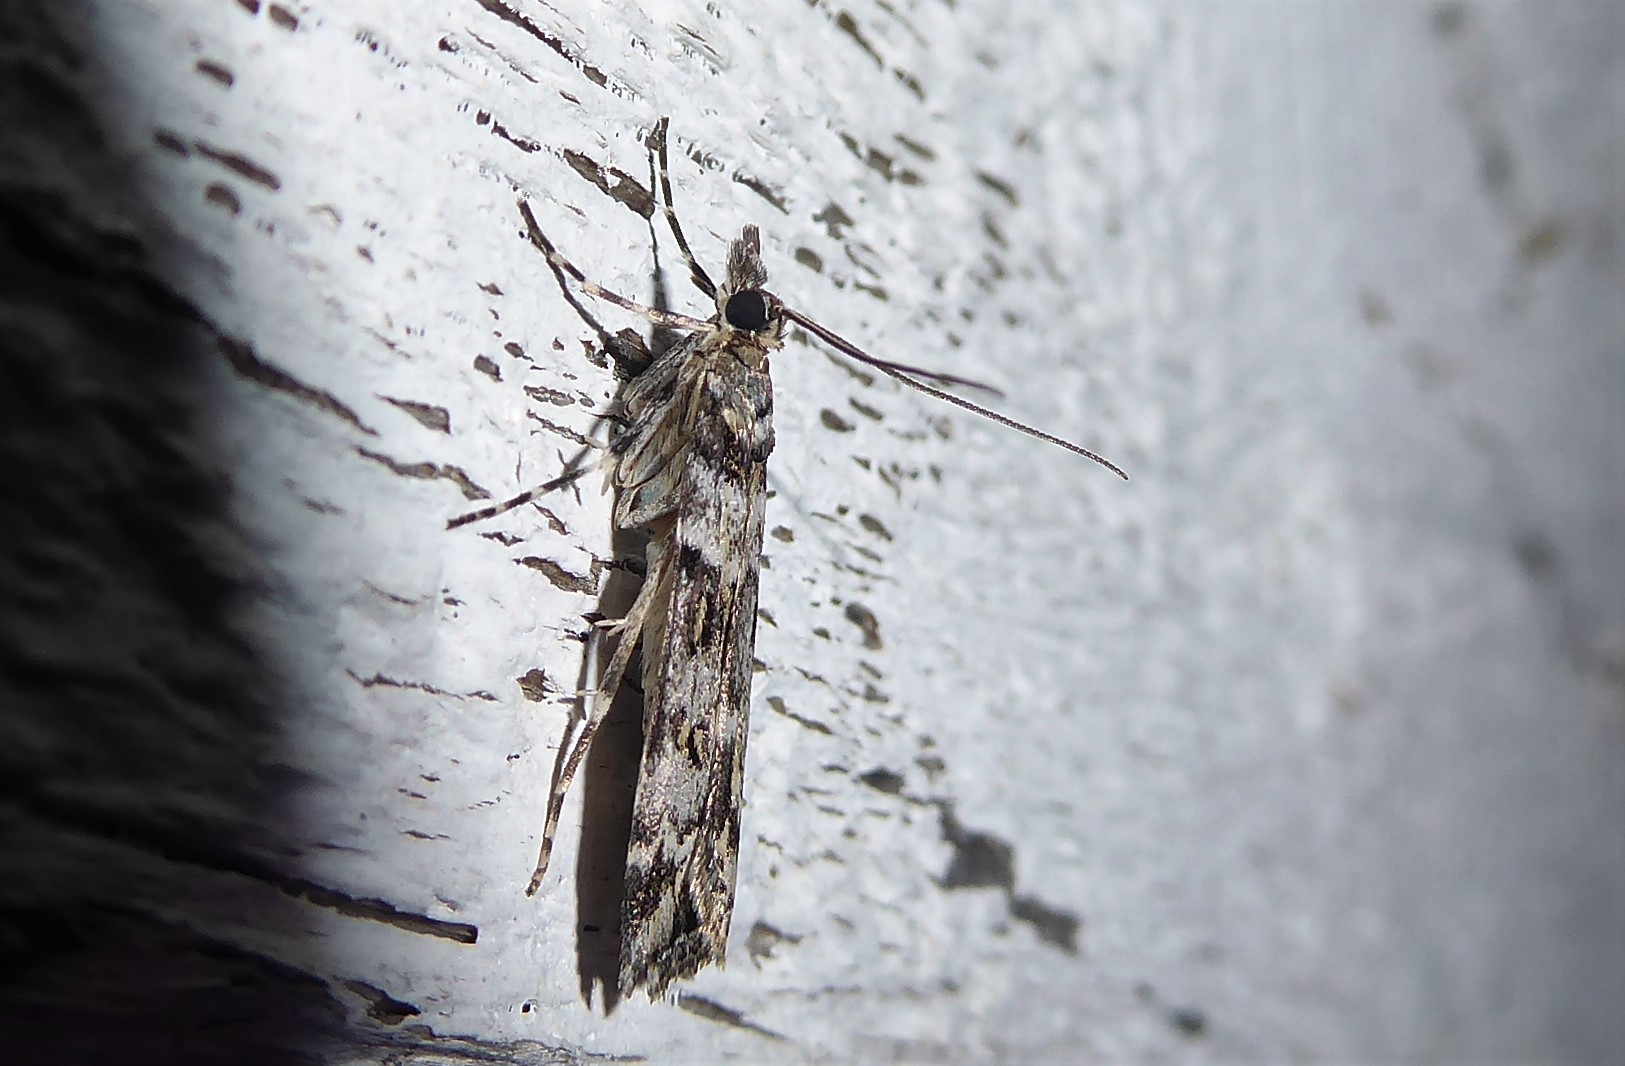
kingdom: Animalia
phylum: Arthropoda
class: Insecta
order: Lepidoptera
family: Crambidae
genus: Eudonia
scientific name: Eudonia diphtheralis
